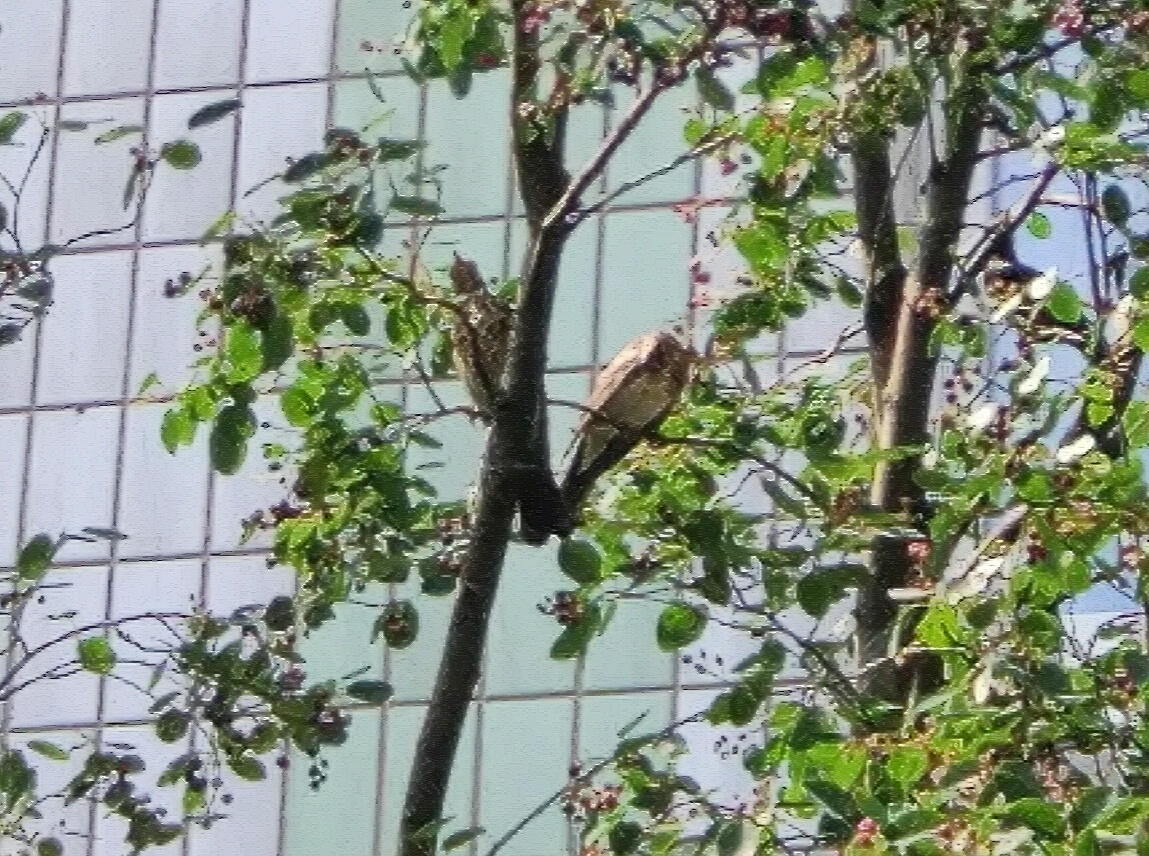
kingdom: Animalia
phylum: Chordata
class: Aves
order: Passeriformes
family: Turdidae
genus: Turdus
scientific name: Turdus pilaris
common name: Fieldfare
